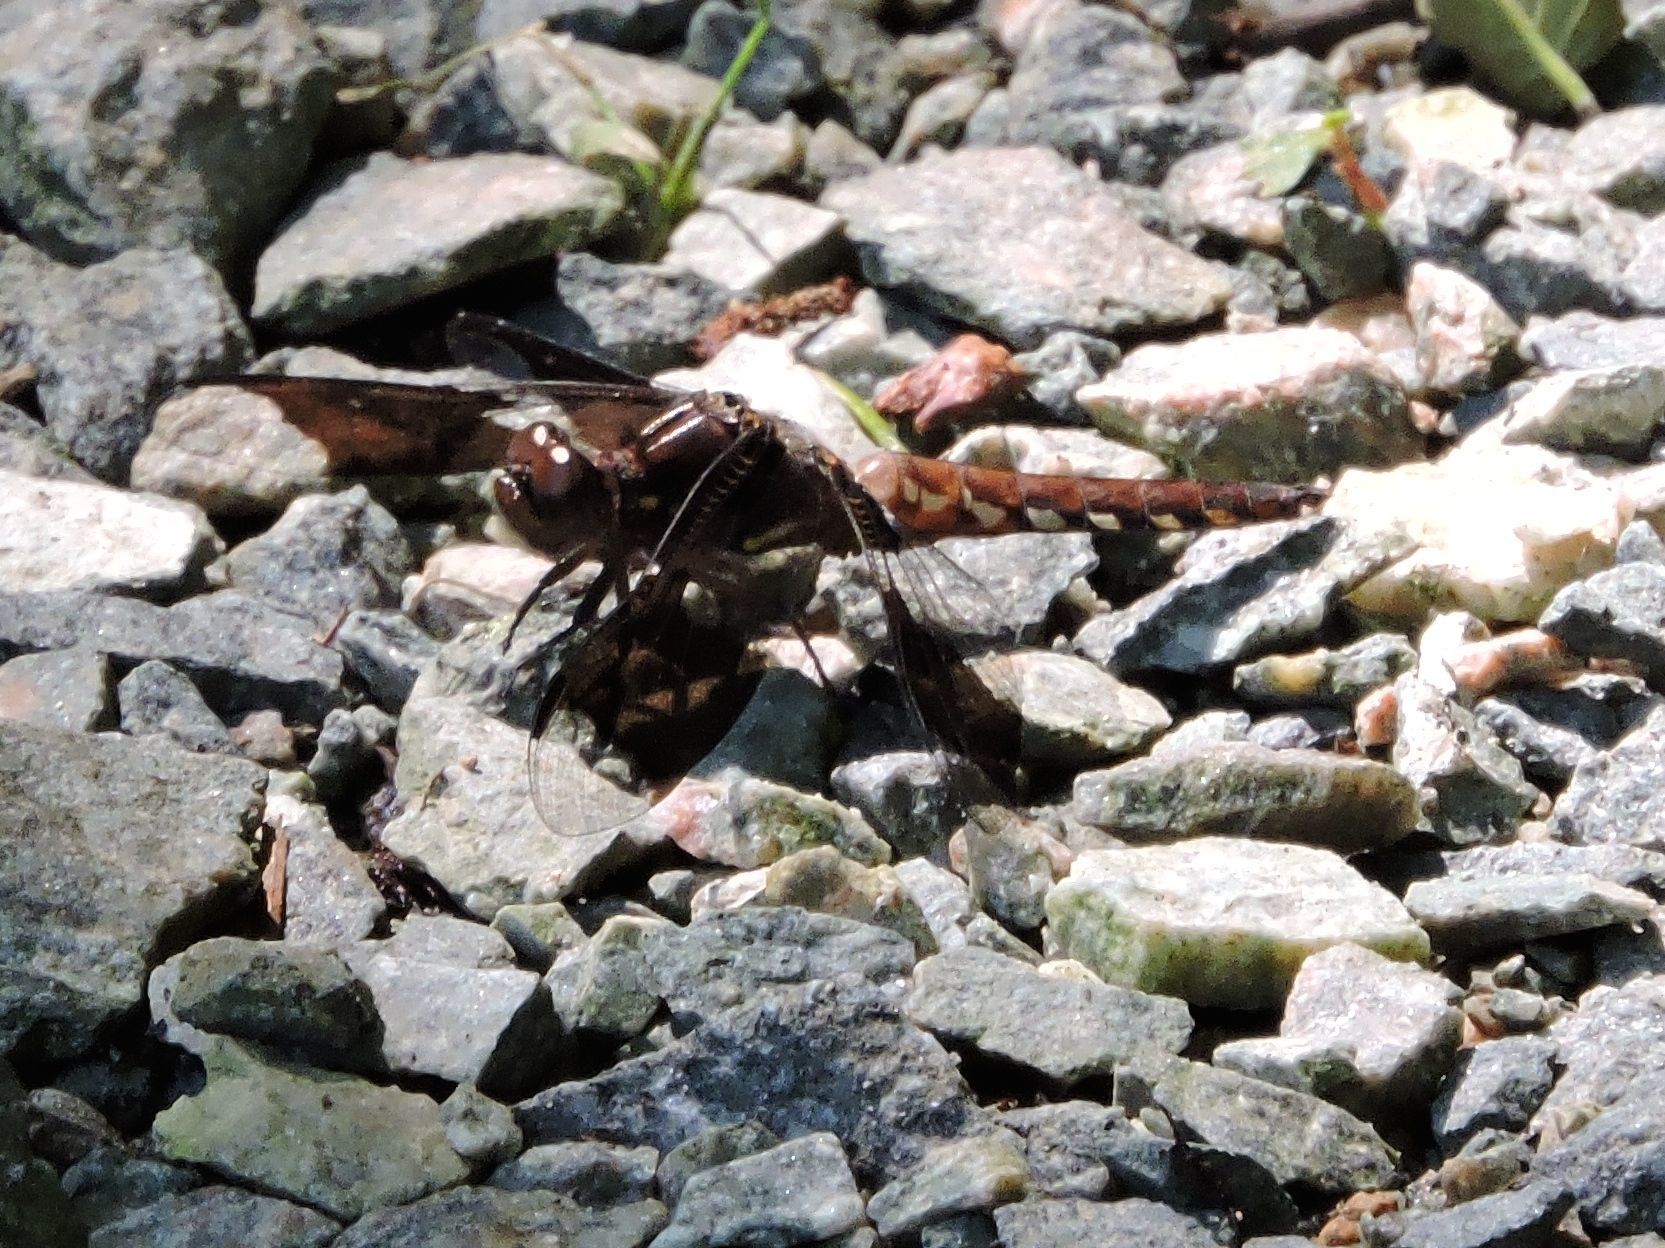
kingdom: Animalia
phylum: Arthropoda
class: Insecta
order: Odonata
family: Libellulidae
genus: Plathemis
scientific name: Plathemis lydia
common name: Common whitetail
